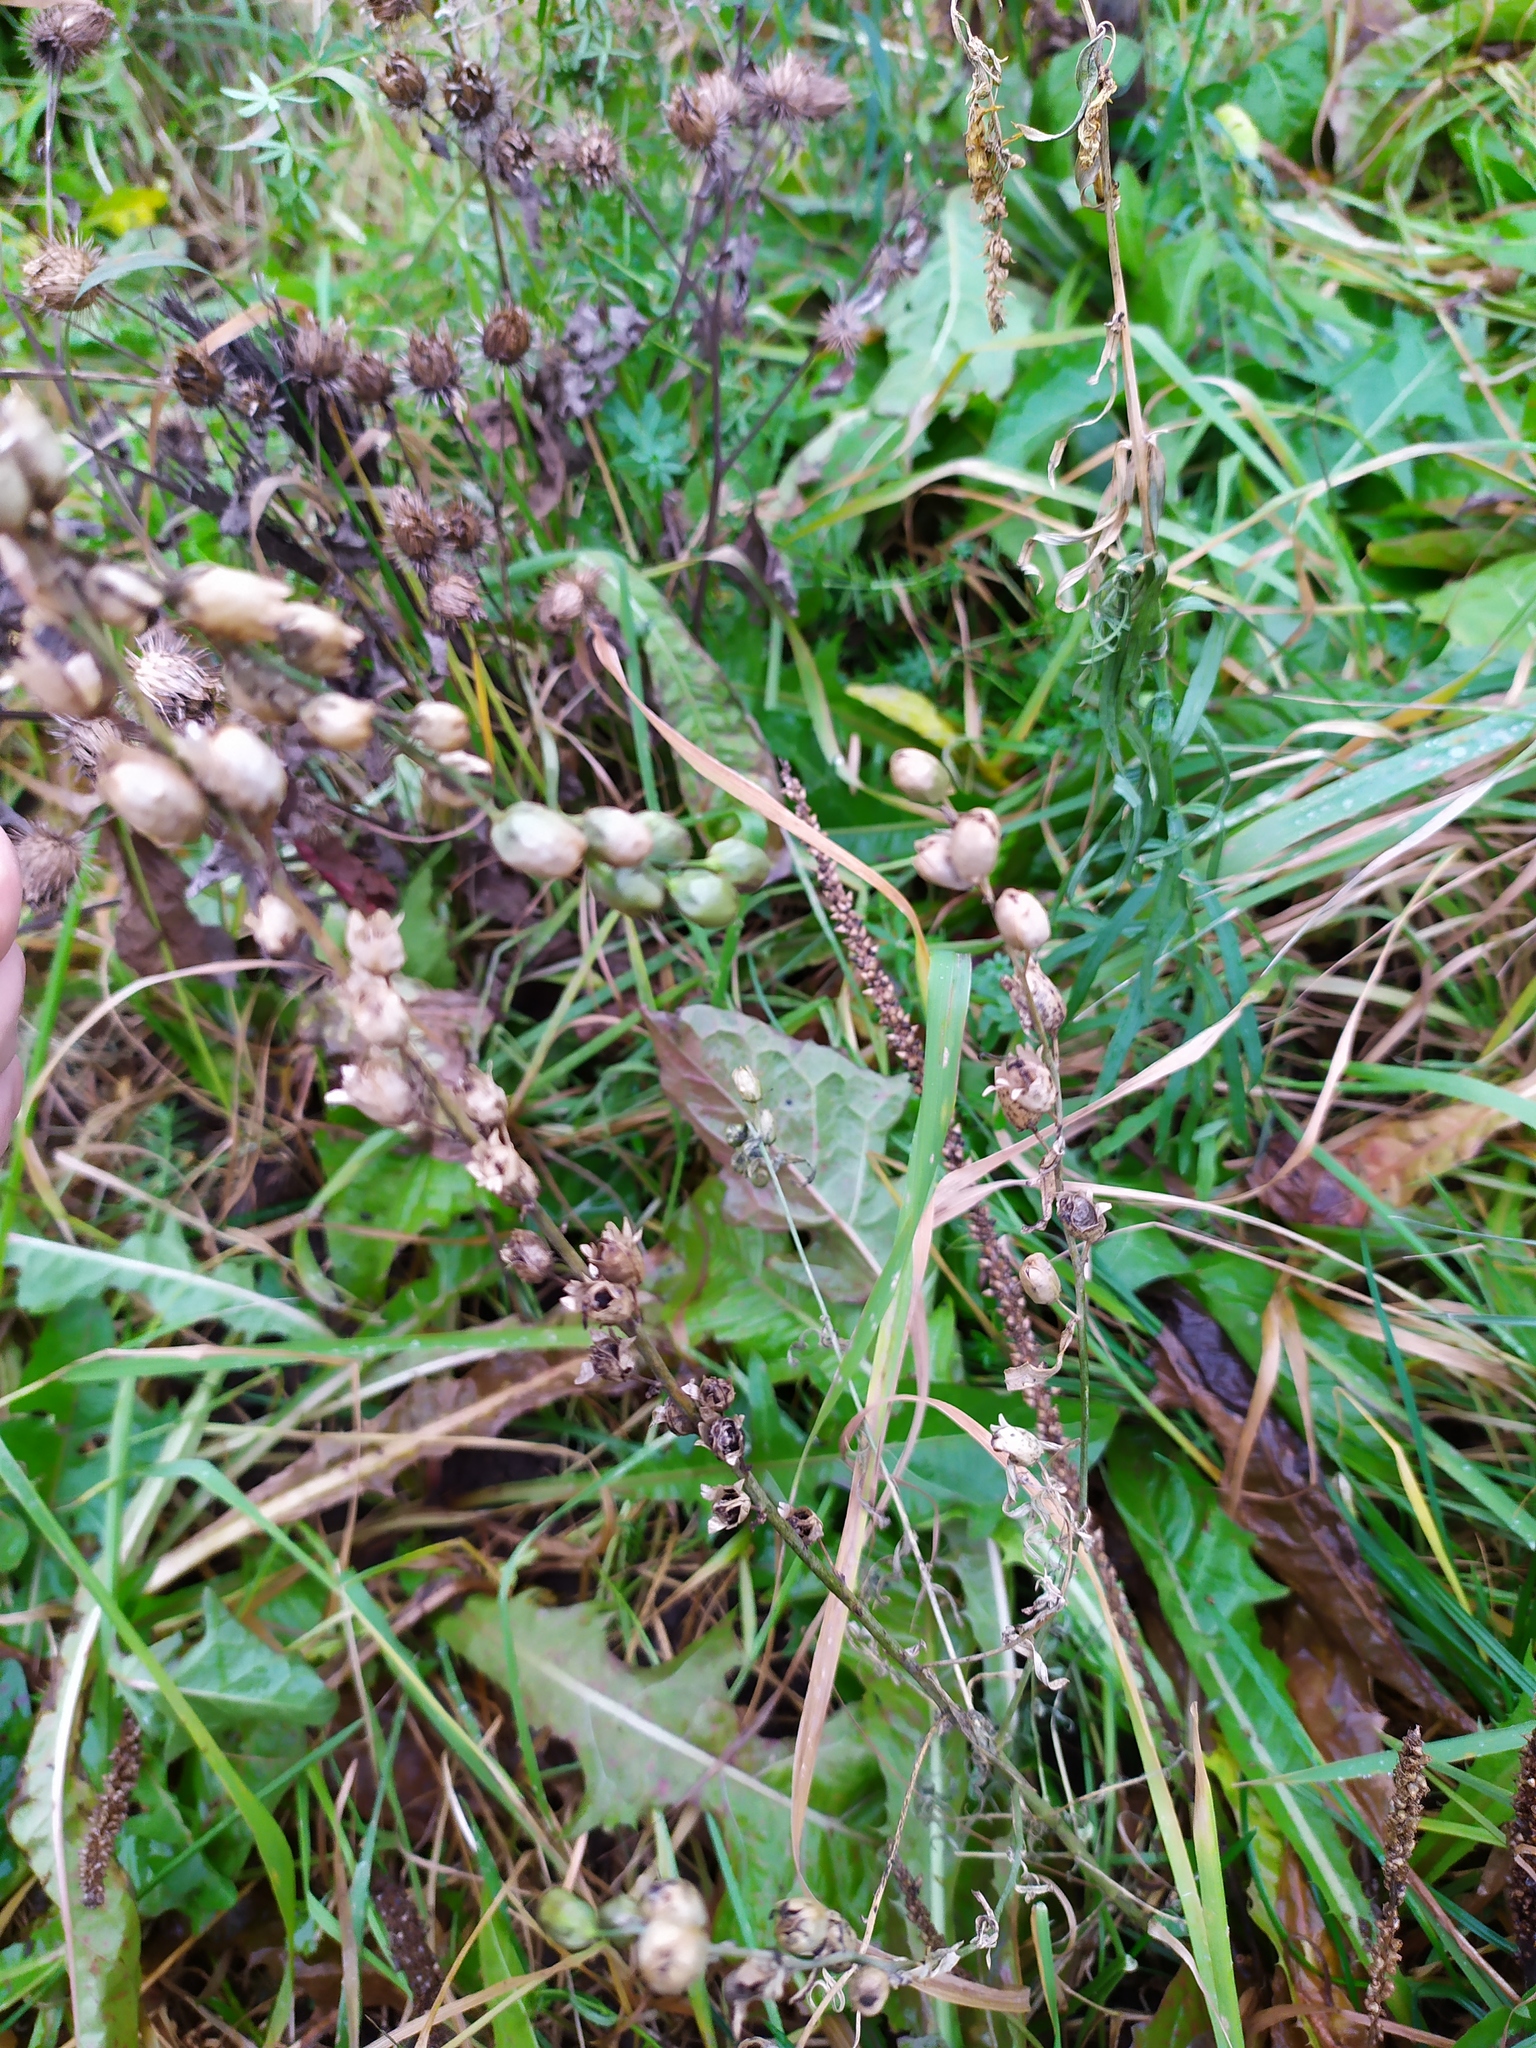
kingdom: Plantae
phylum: Tracheophyta
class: Magnoliopsida
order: Lamiales
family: Plantaginaceae
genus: Linaria
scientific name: Linaria vulgaris
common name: Butter and eggs
